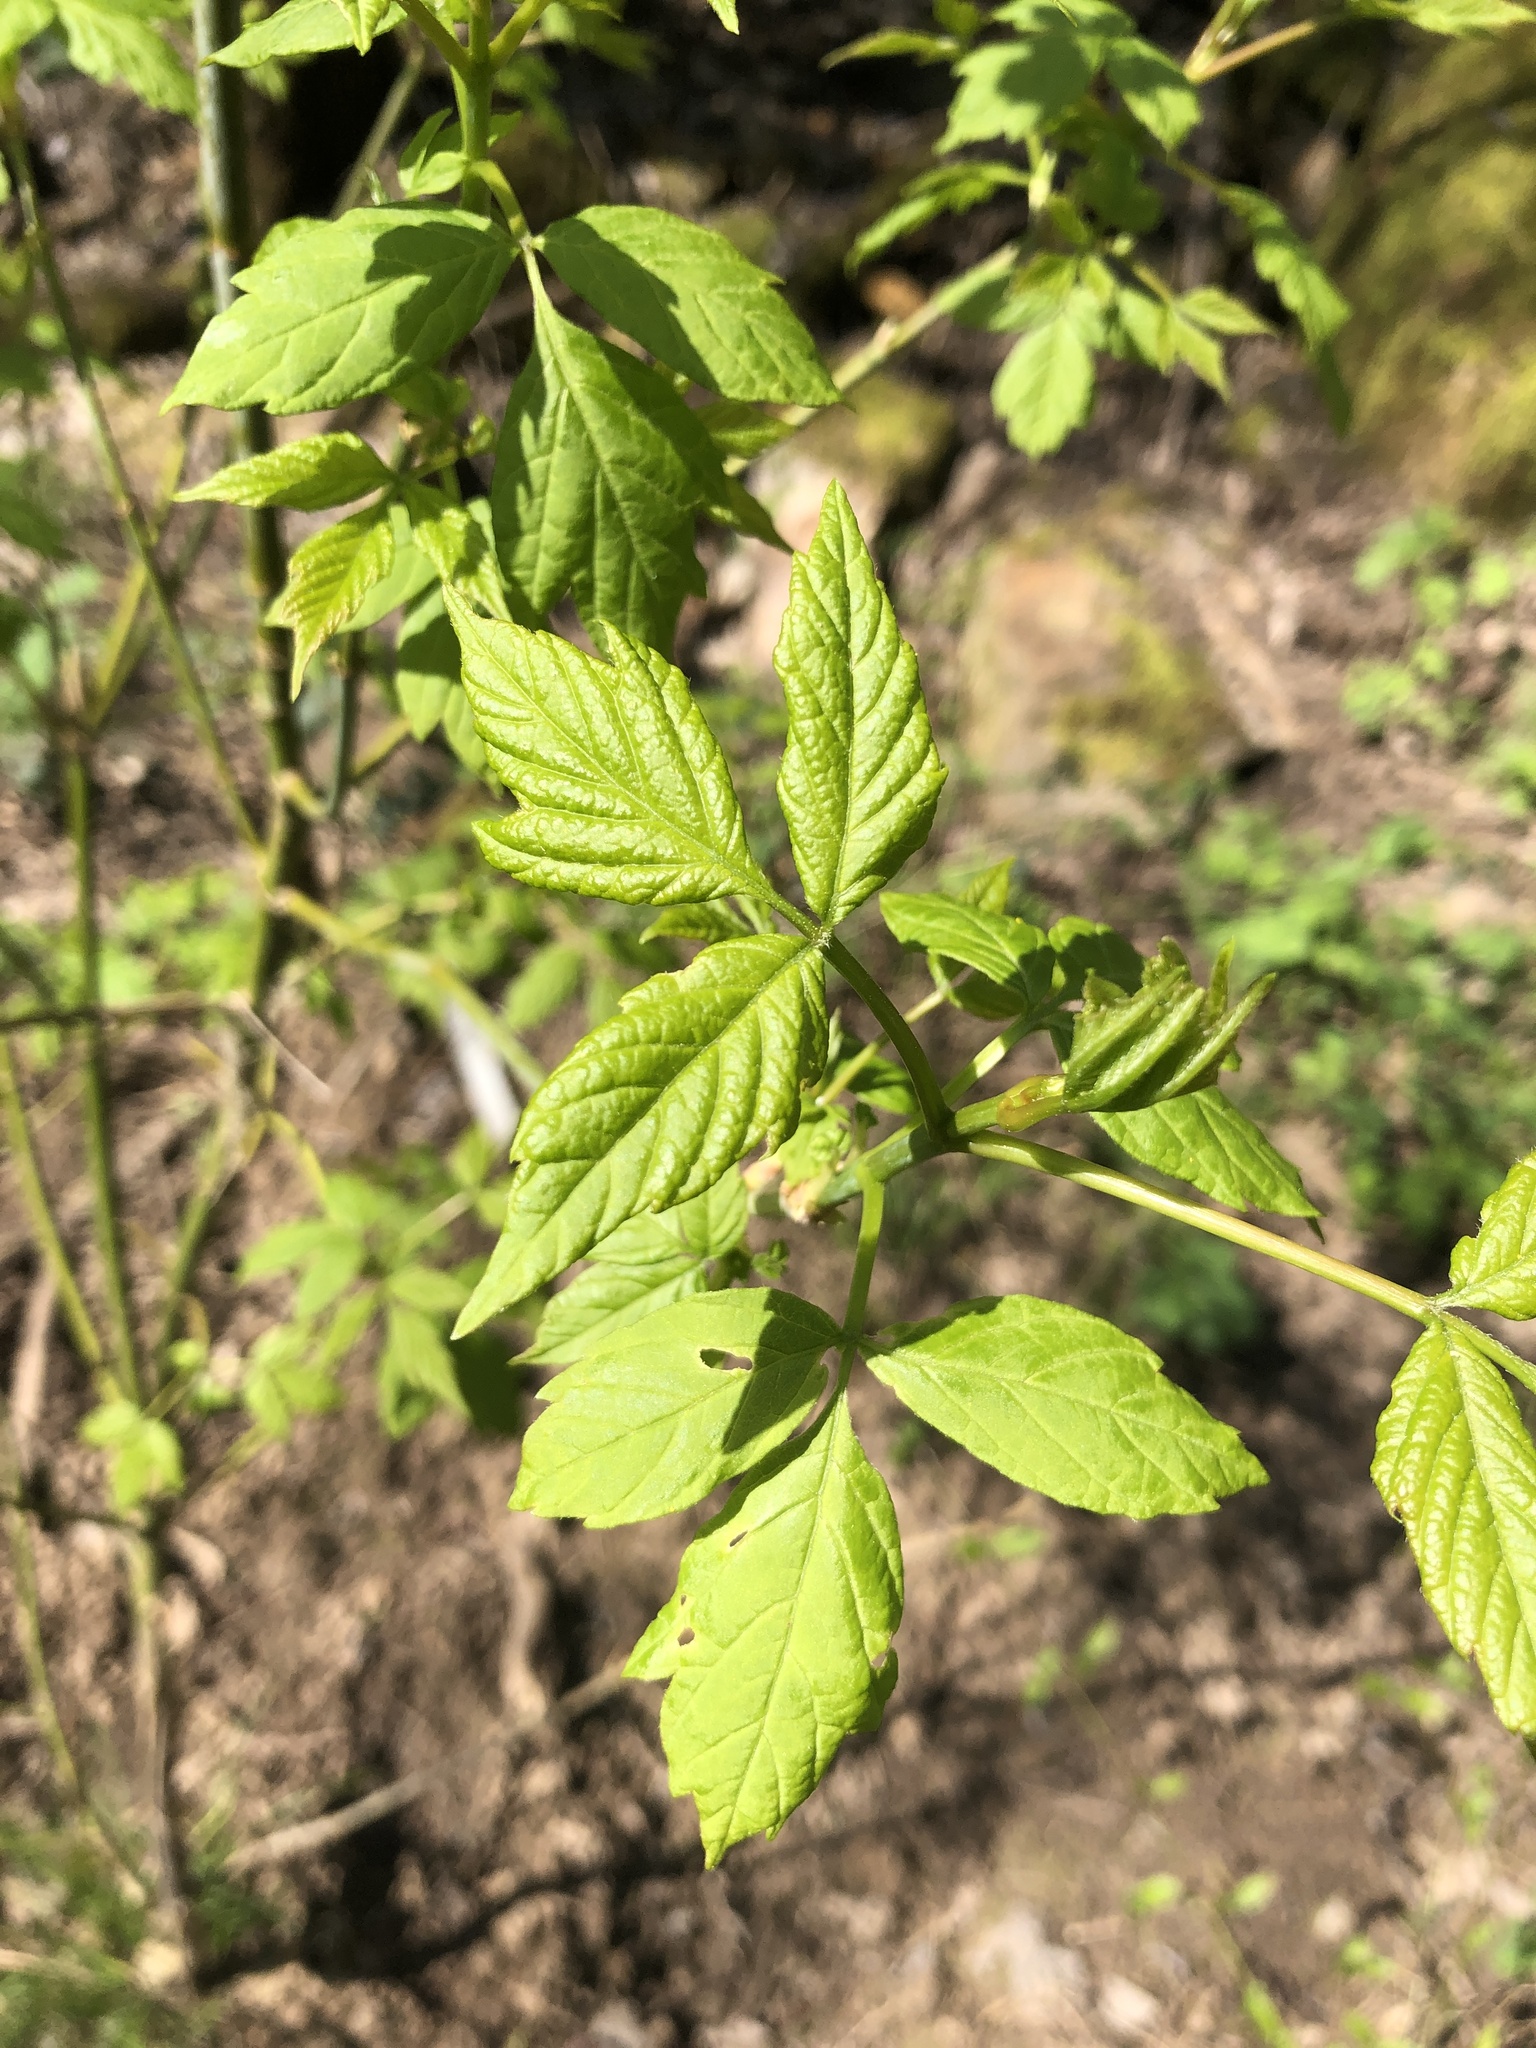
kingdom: Plantae
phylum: Tracheophyta
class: Magnoliopsida
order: Sapindales
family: Sapindaceae
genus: Acer
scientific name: Acer negundo
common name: Ashleaf maple
